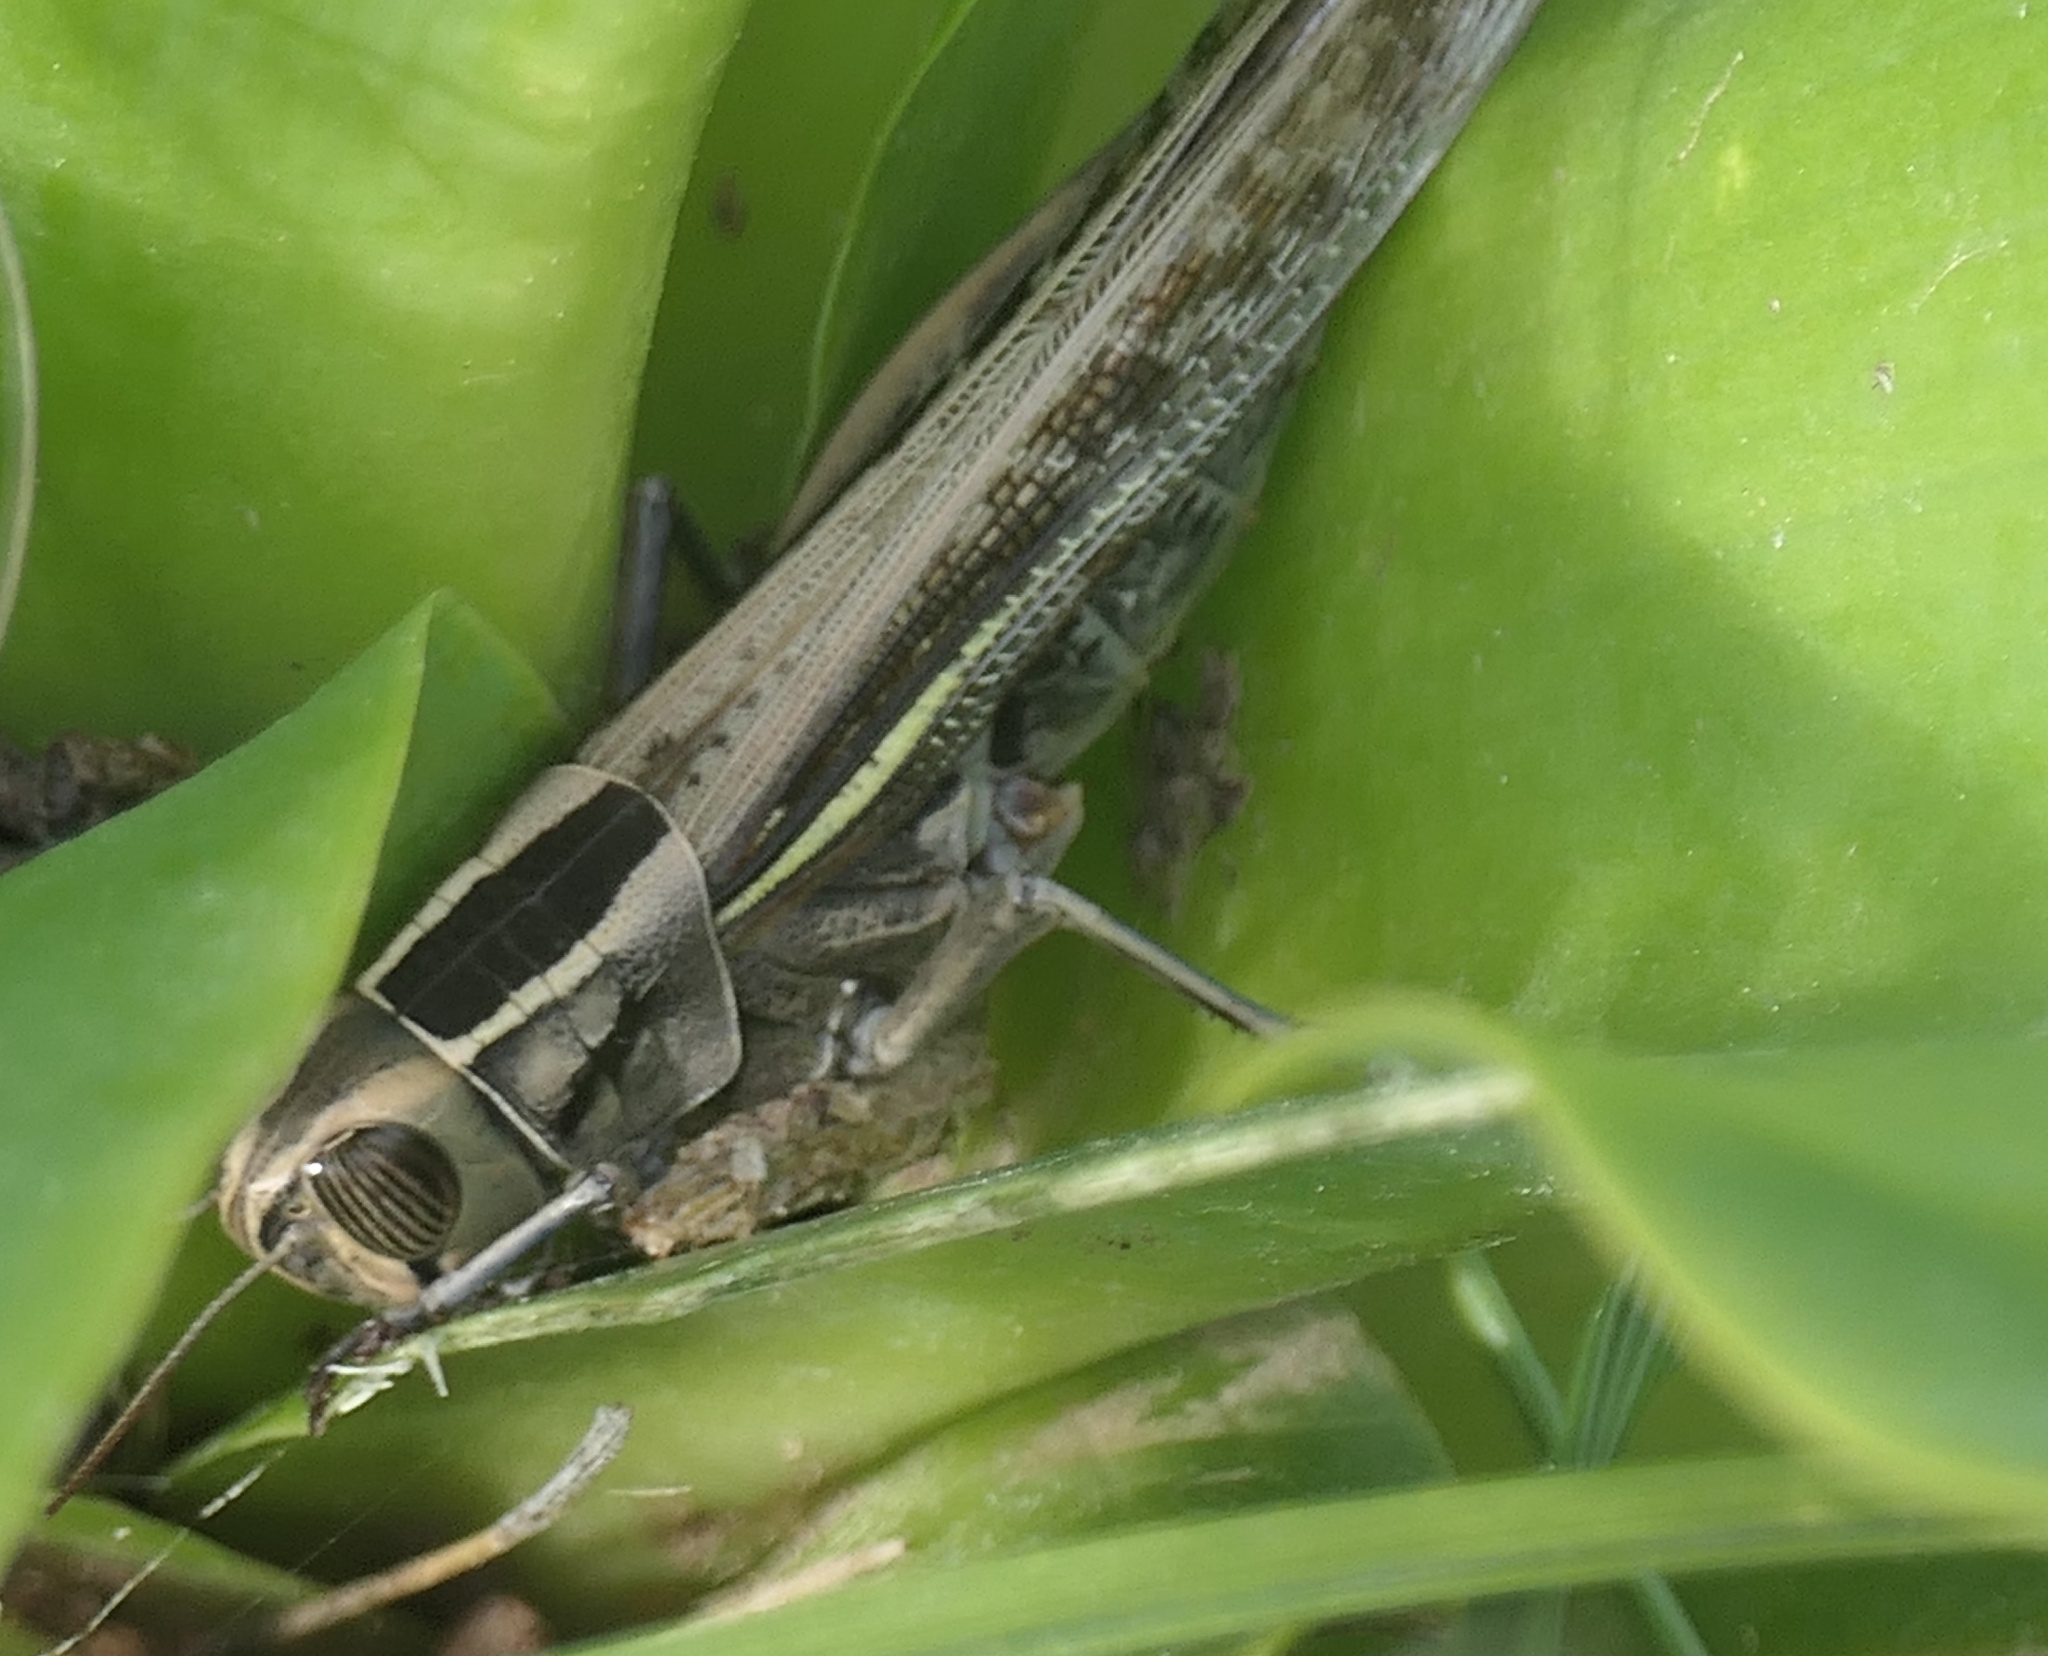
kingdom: Animalia
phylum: Arthropoda
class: Insecta
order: Orthoptera
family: Acrididae
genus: Eyprepocnemis
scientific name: Eyprepocnemis plorans
